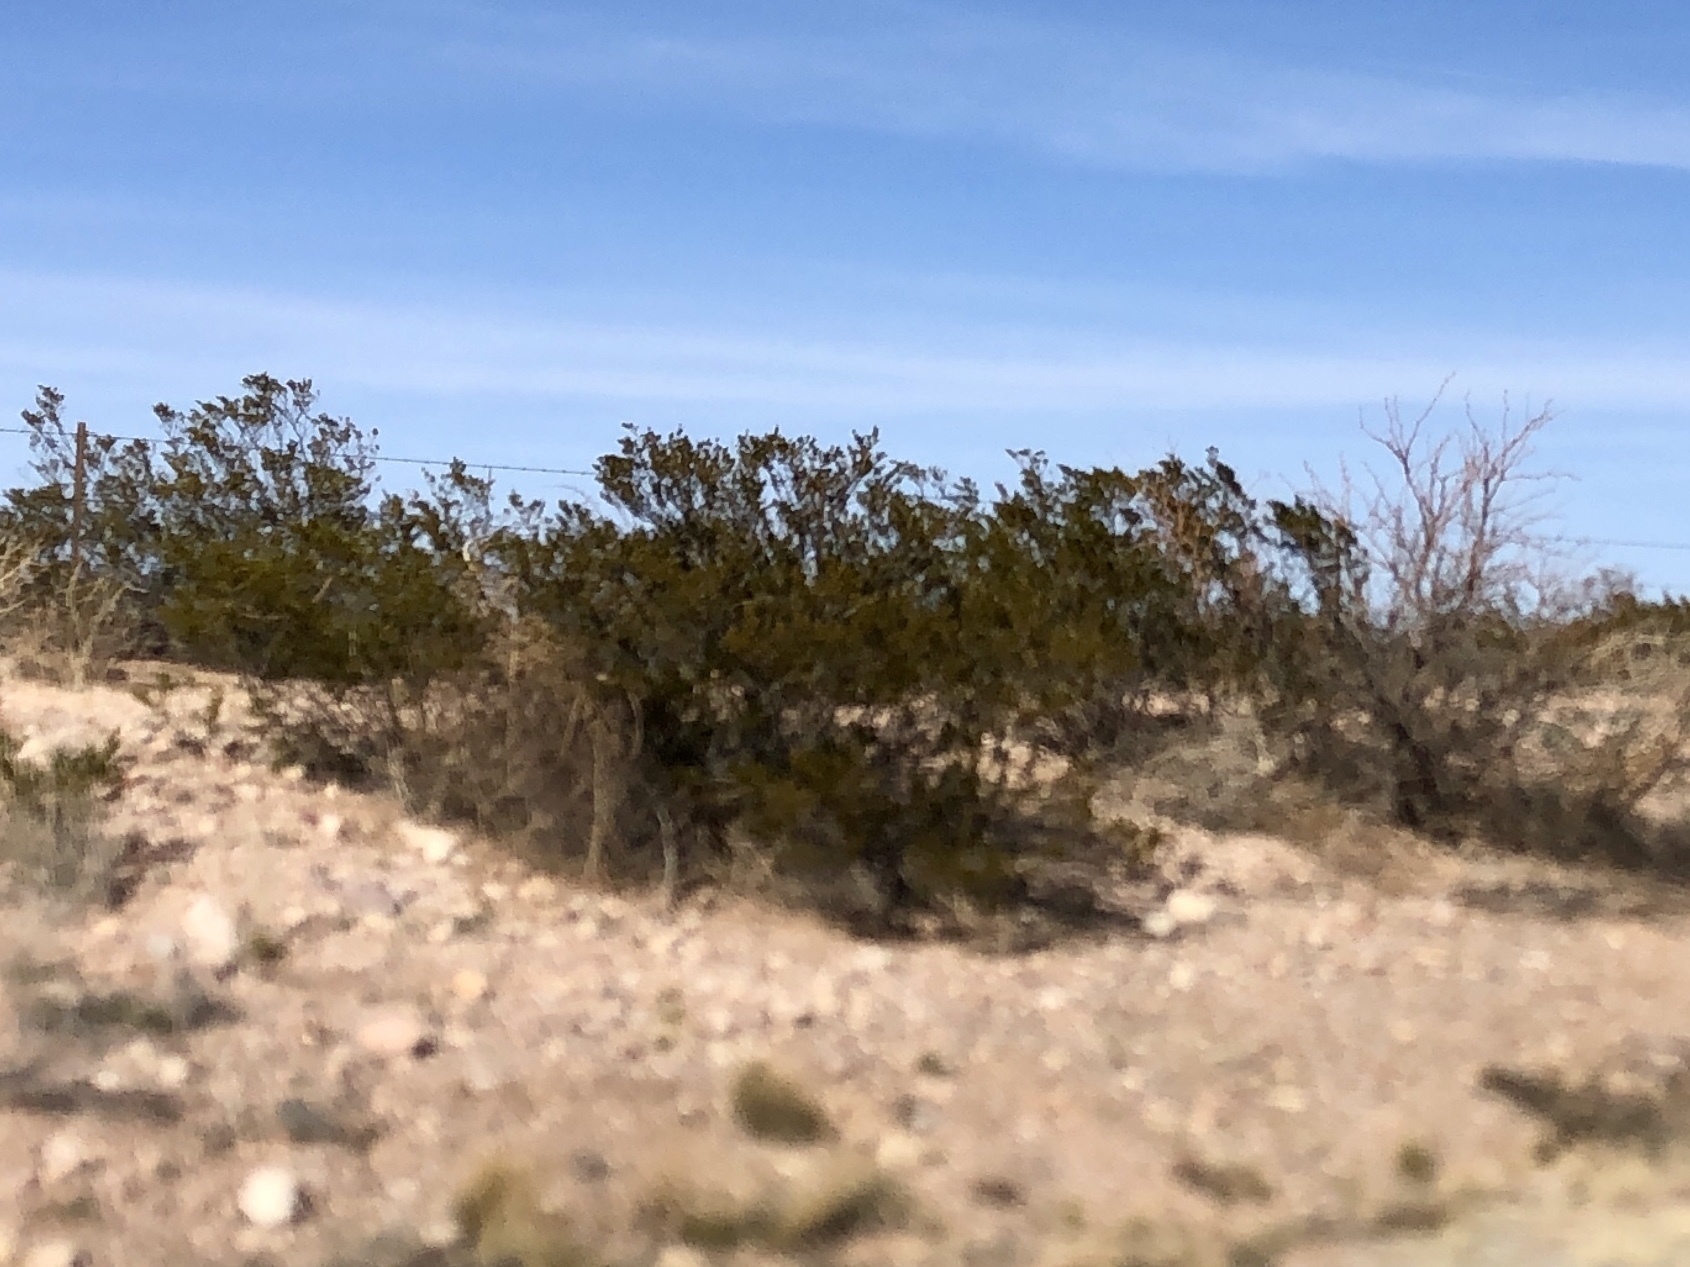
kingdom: Plantae
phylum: Tracheophyta
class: Magnoliopsida
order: Zygophyllales
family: Zygophyllaceae
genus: Larrea
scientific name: Larrea tridentata
